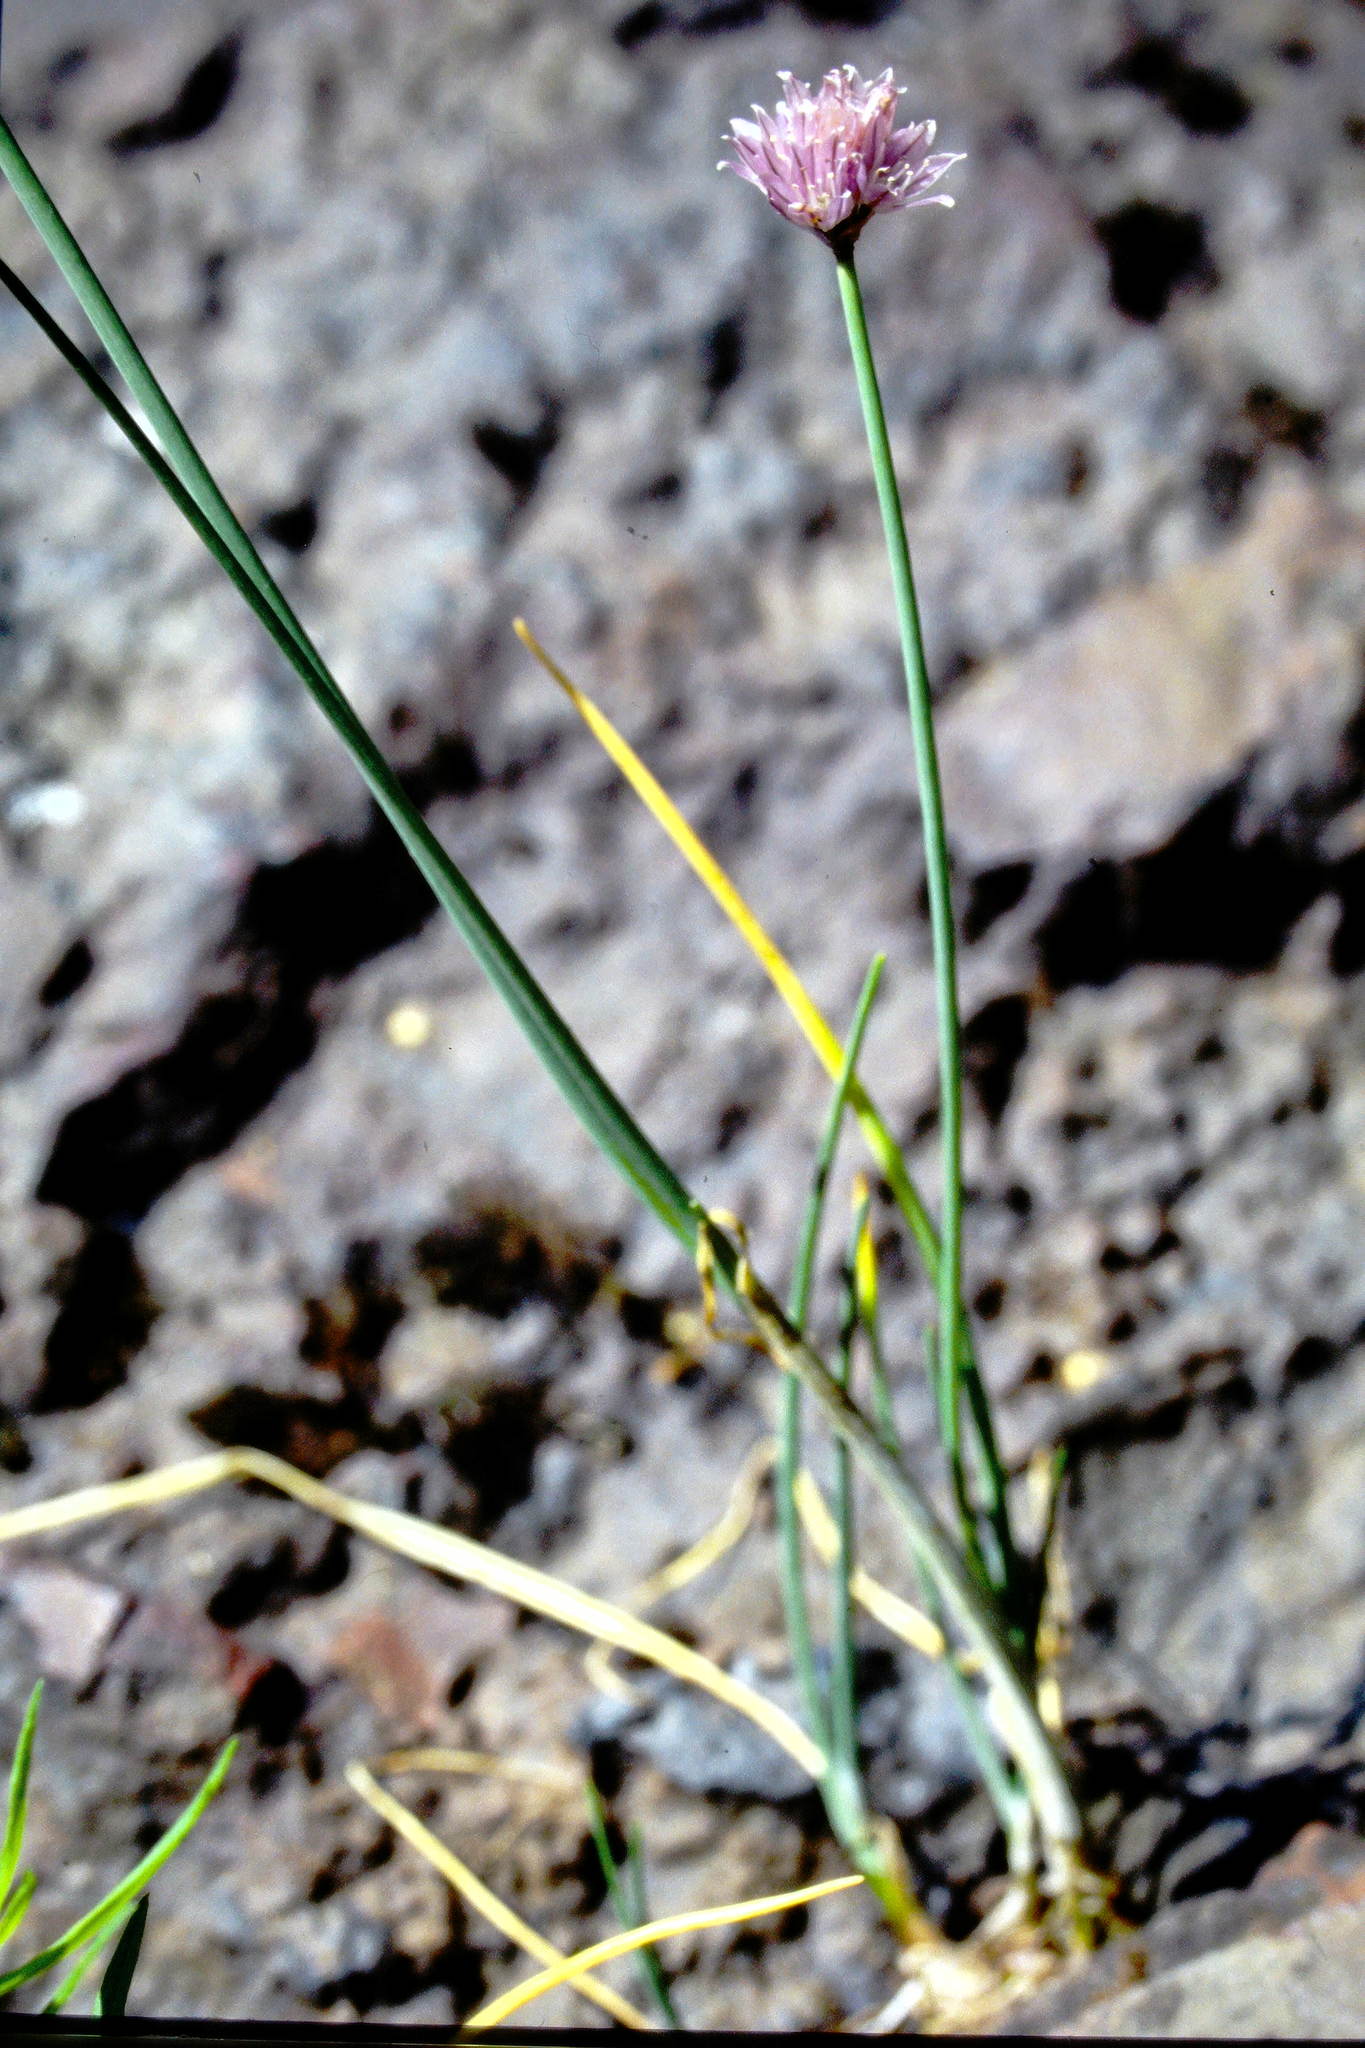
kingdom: Plantae
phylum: Tracheophyta
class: Liliopsida
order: Asparagales
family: Amaryllidaceae
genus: Allium
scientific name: Allium schoenoprasum
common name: Chives
